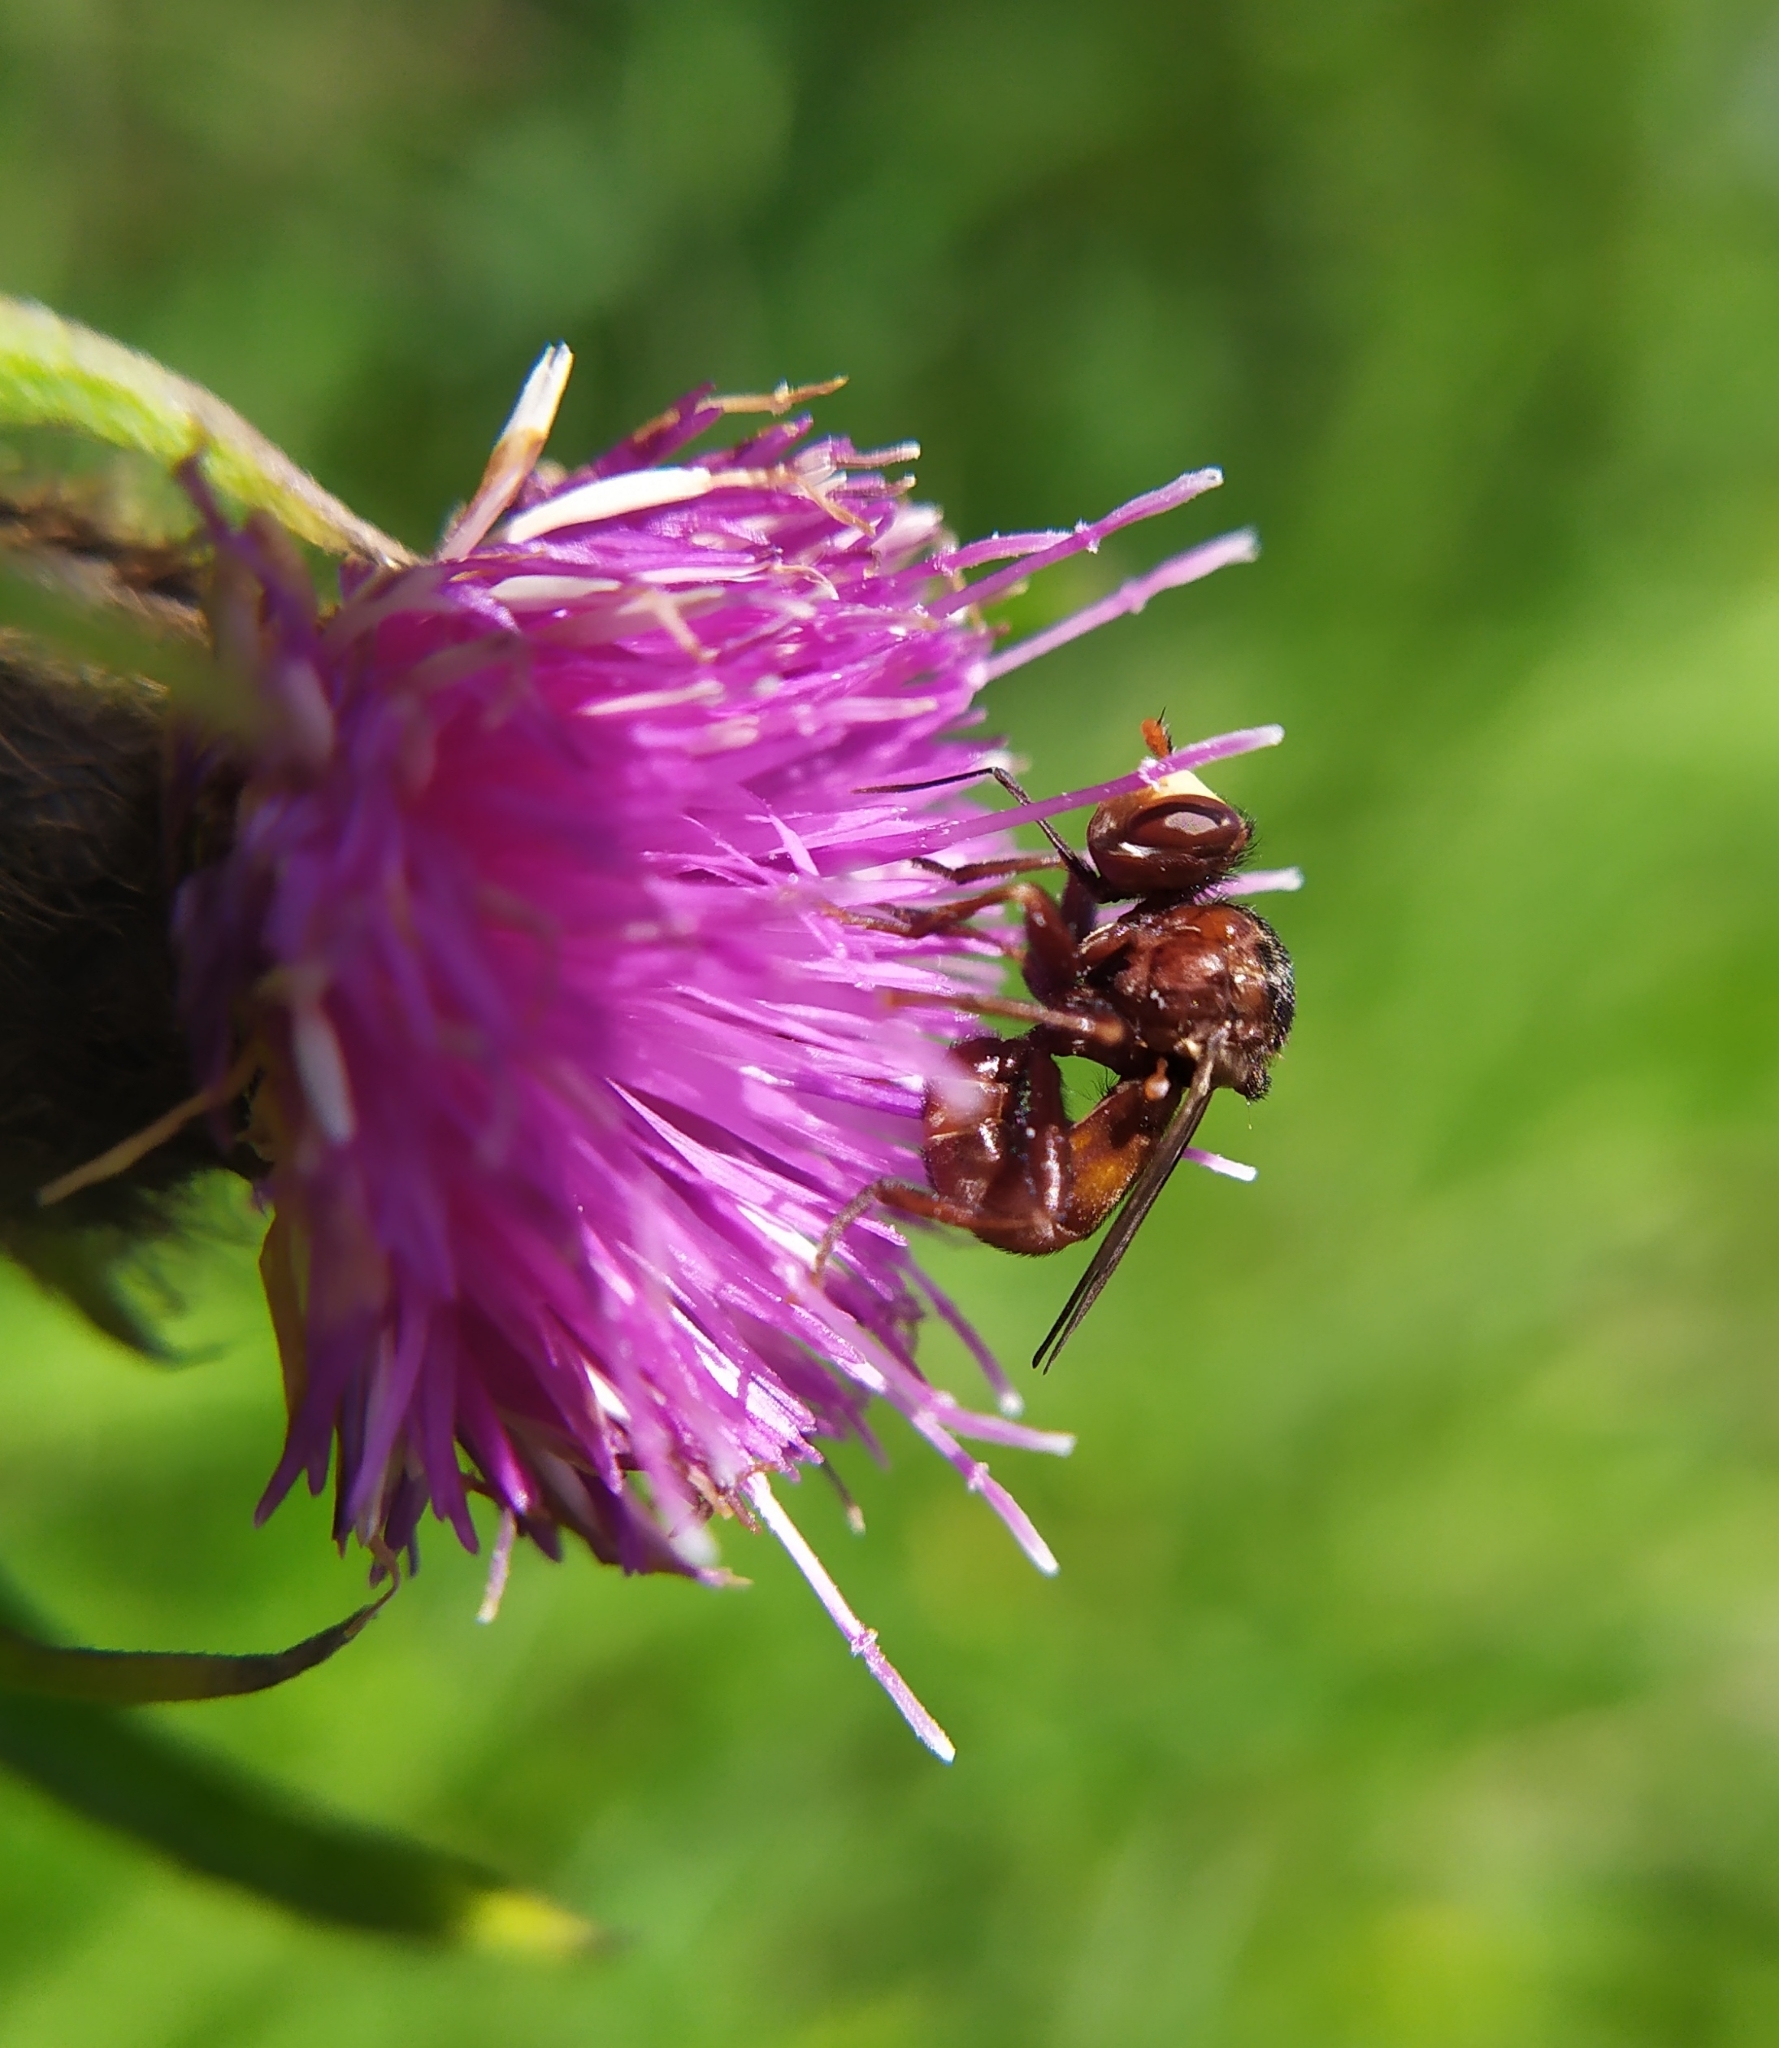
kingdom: Animalia
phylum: Arthropoda
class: Insecta
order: Diptera
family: Conopidae
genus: Sicus
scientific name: Sicus ferrugineus
